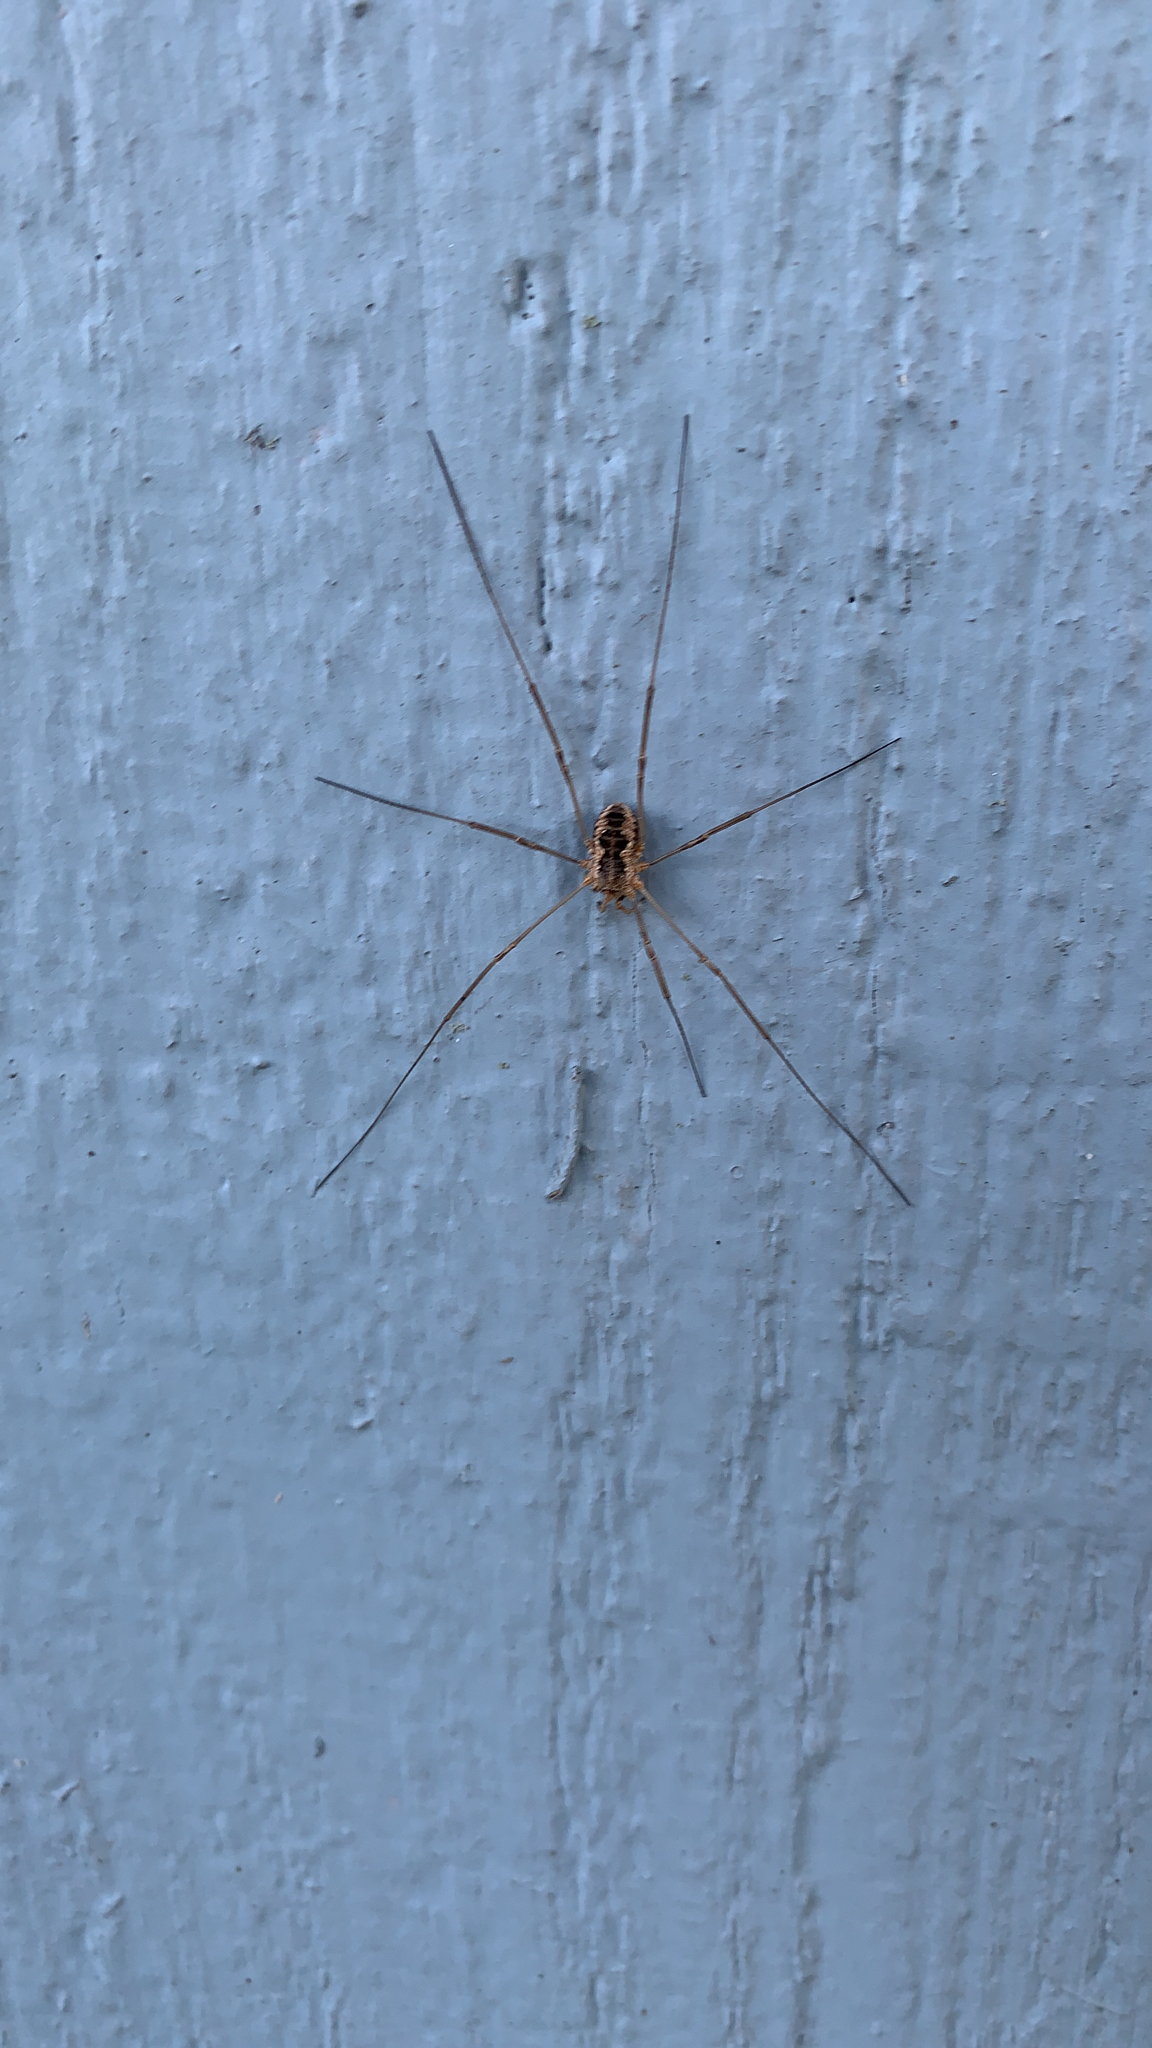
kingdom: Animalia
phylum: Arthropoda
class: Arachnida
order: Opiliones
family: Phalangiidae
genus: Phalangium
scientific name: Phalangium opilio
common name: Daddy longleg
